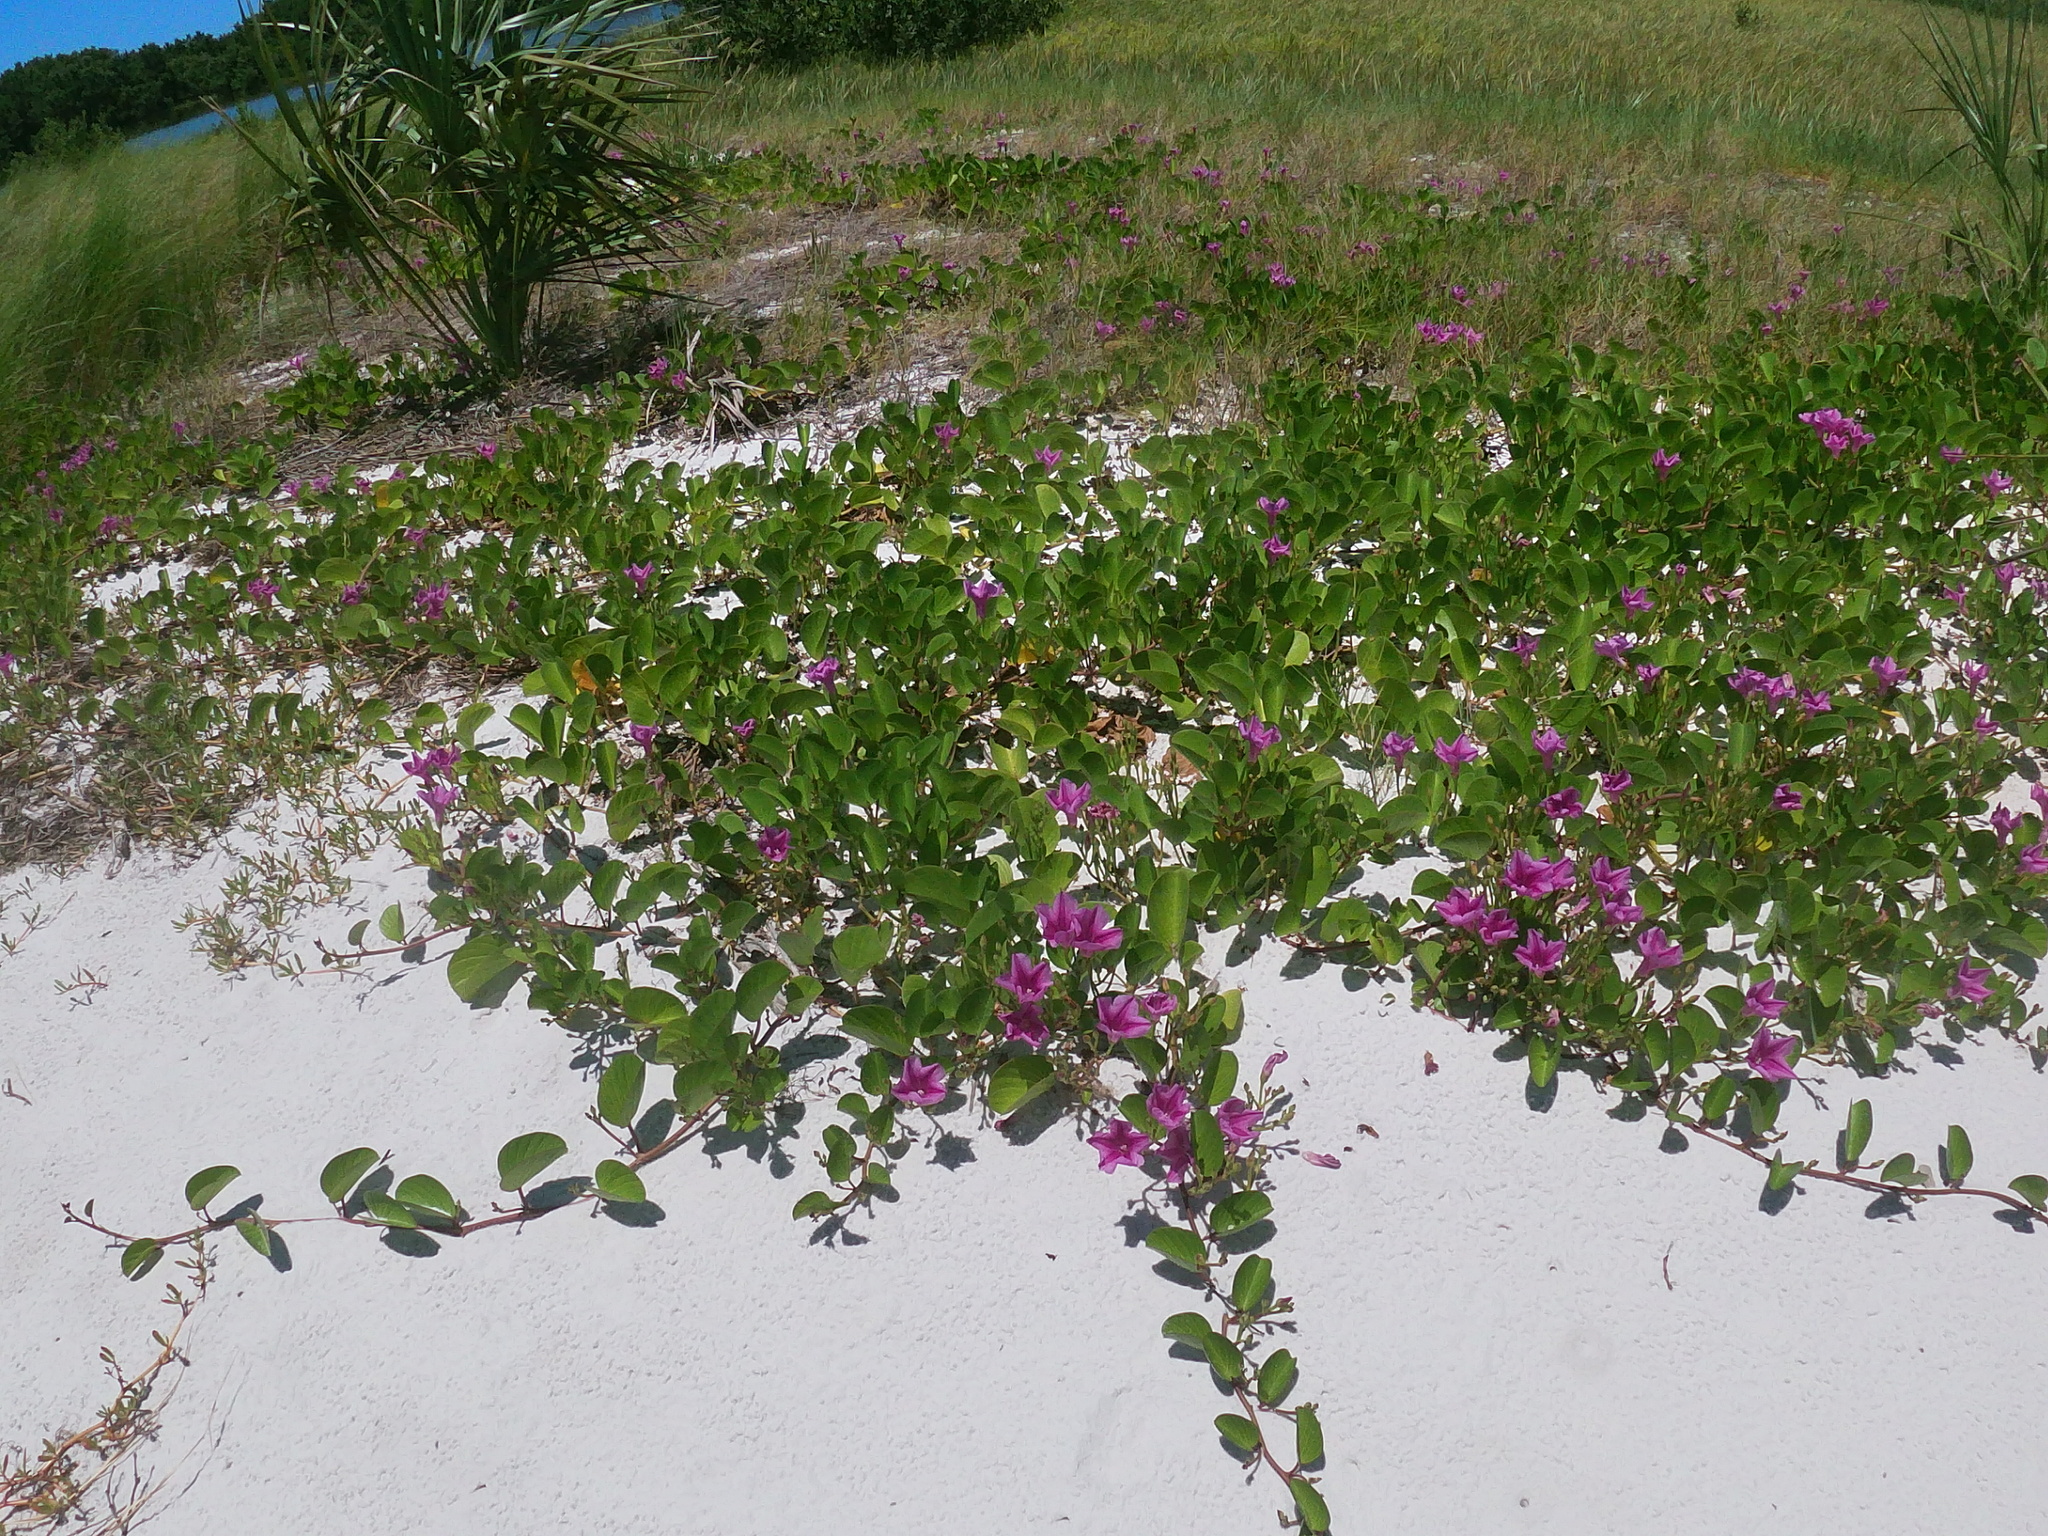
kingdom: Plantae
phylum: Tracheophyta
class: Magnoliopsida
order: Solanales
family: Convolvulaceae
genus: Ipomoea
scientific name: Ipomoea pes-caprae
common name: Beach morning glory
